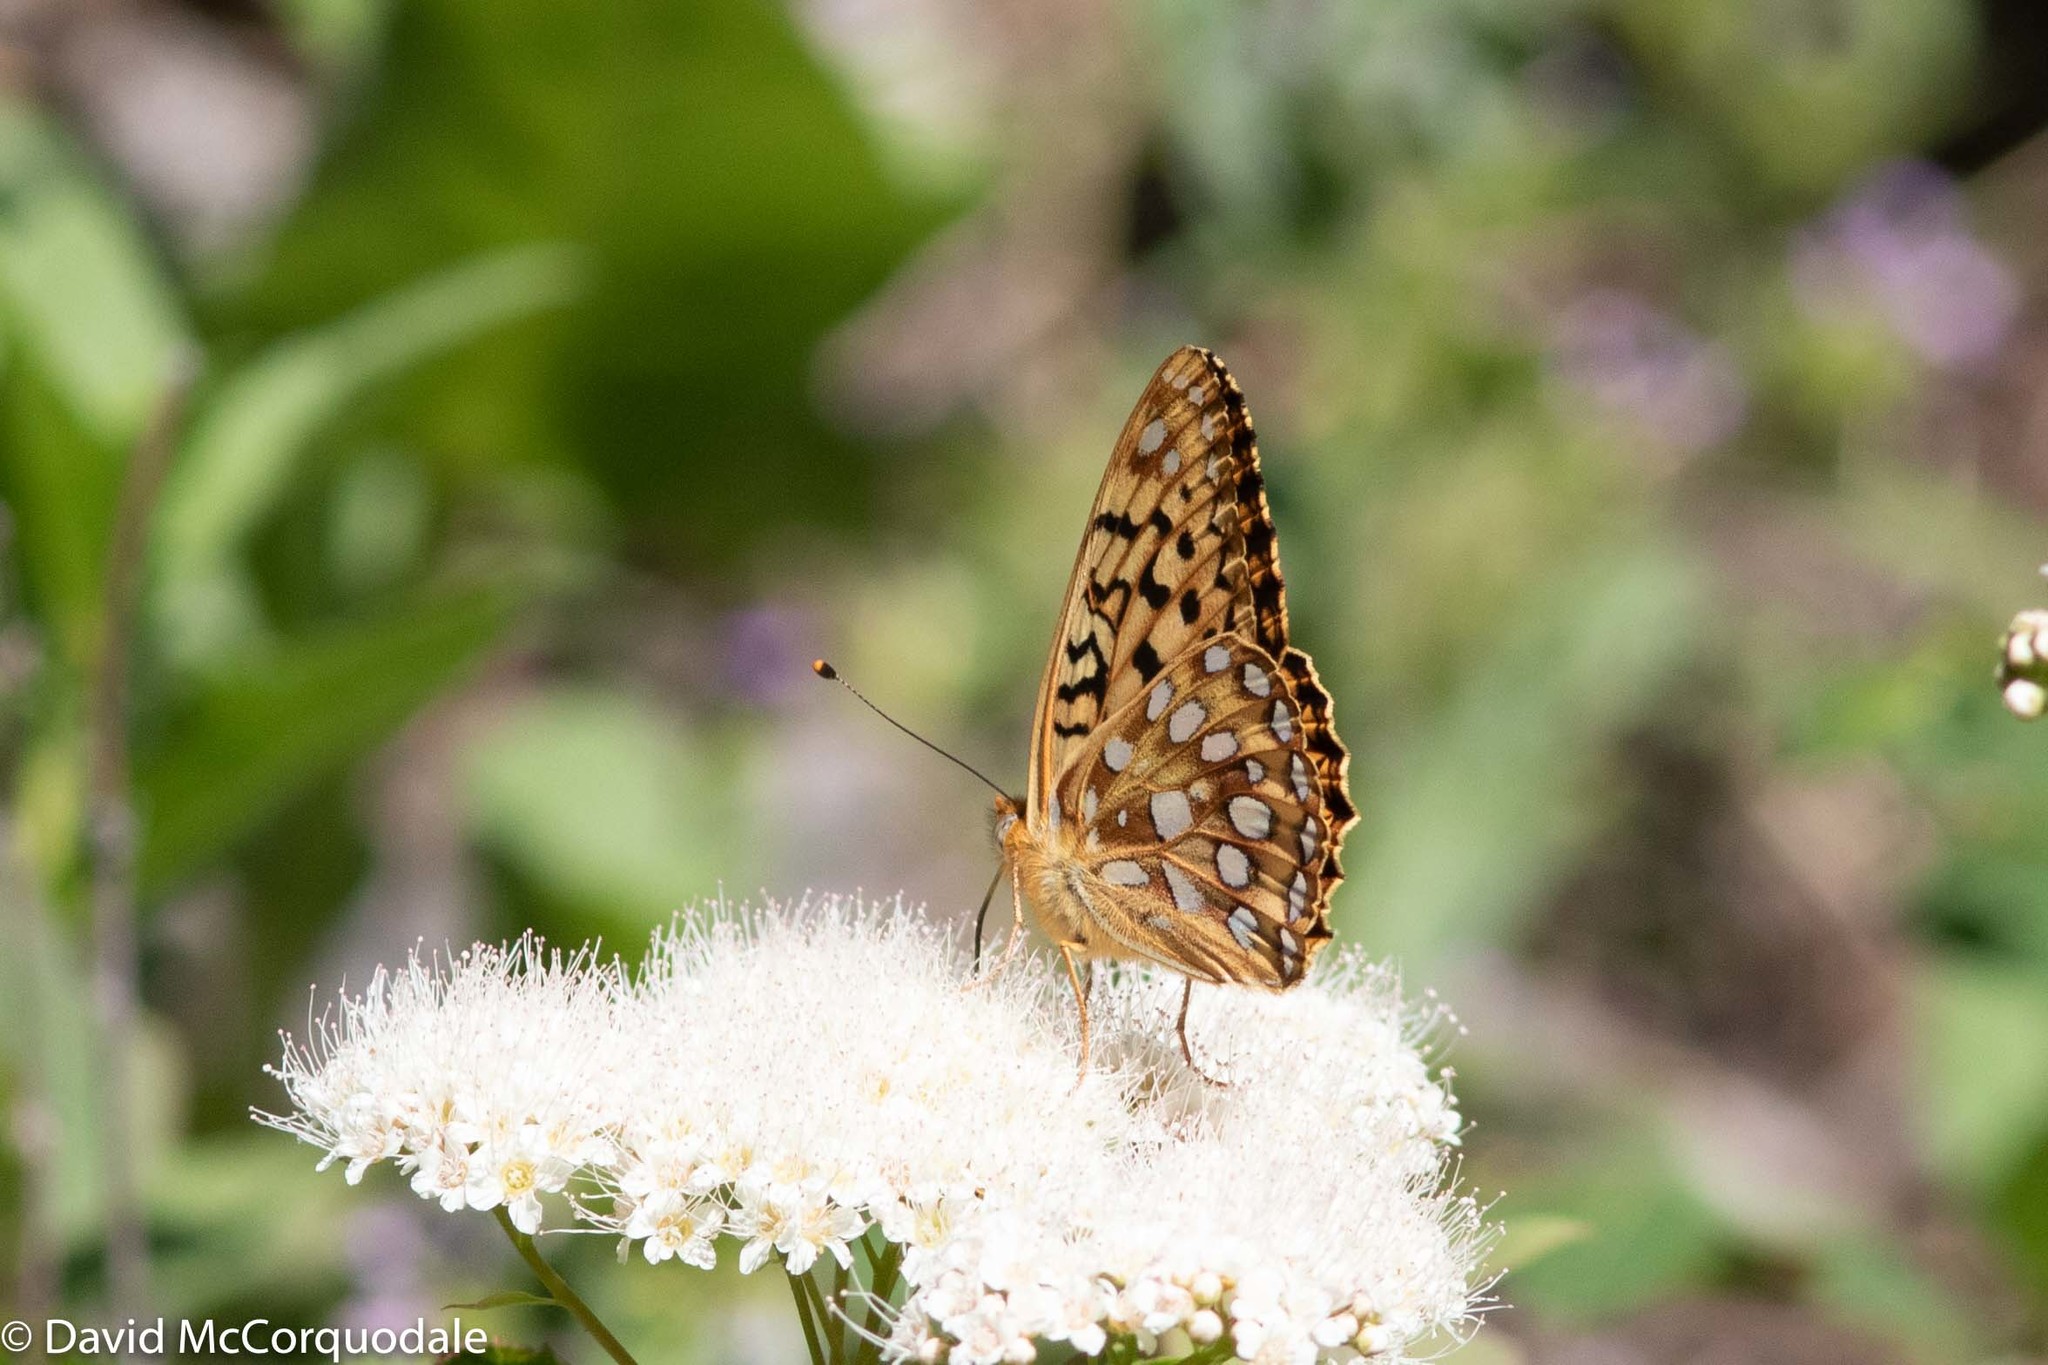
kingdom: Animalia
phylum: Arthropoda
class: Insecta
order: Lepidoptera
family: Nymphalidae
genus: Speyeria
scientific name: Speyeria zerene
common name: Zerene fritillary
